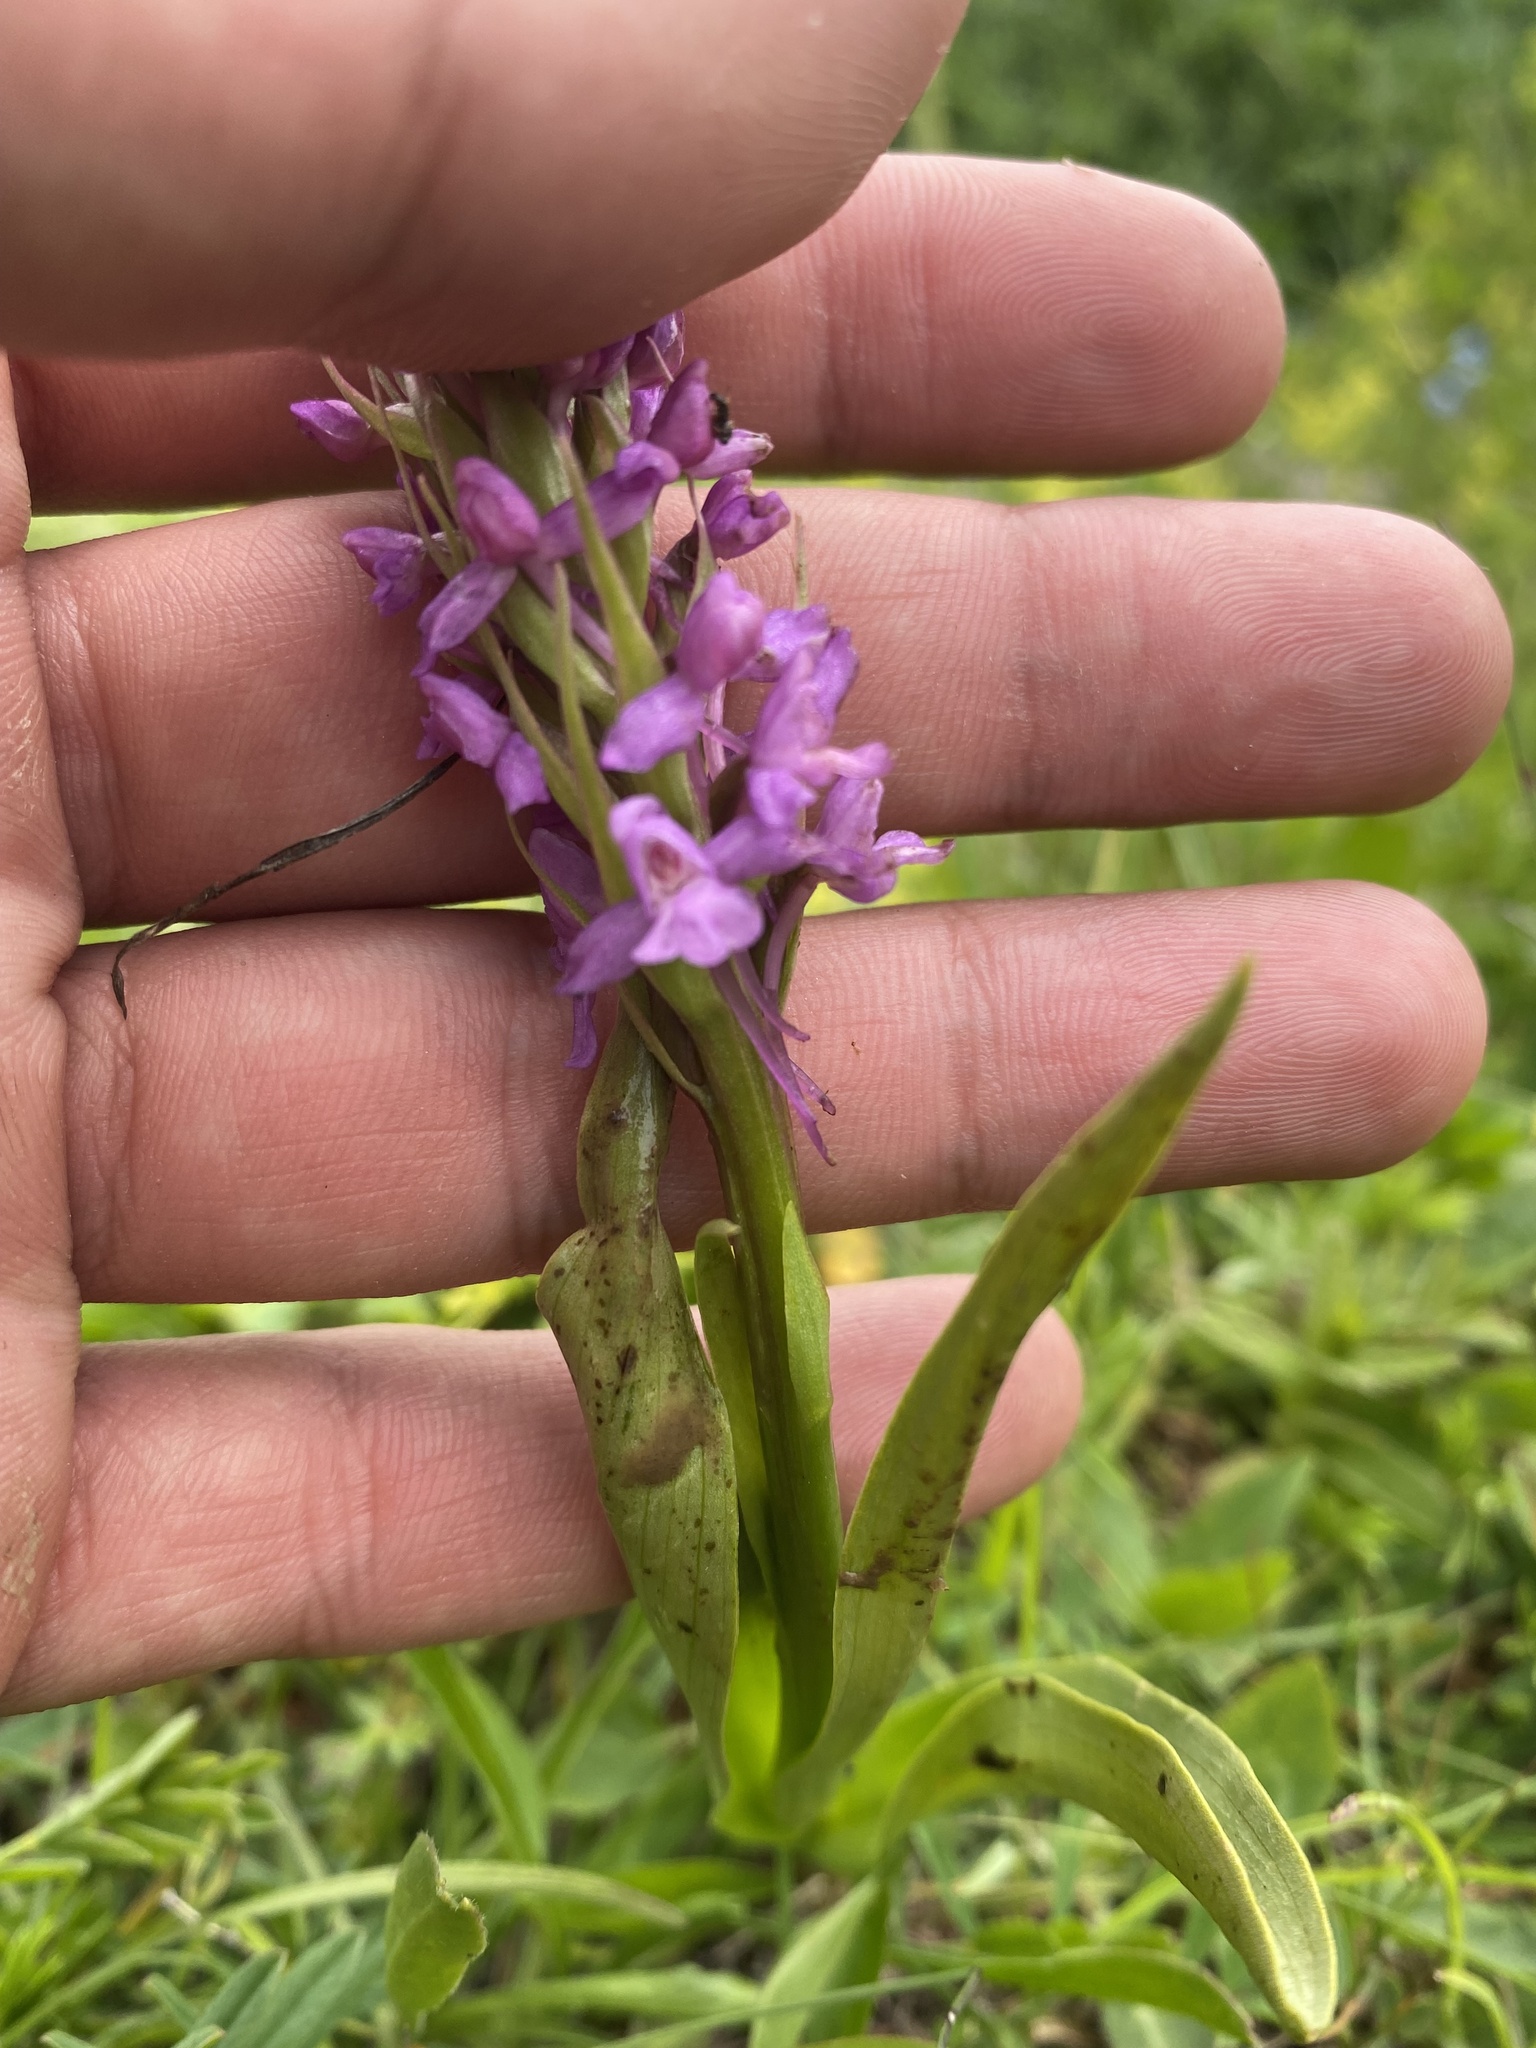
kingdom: Plantae
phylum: Tracheophyta
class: Liliopsida
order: Asparagales
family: Orchidaceae
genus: Gymnadenia
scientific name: Gymnadenia conopsea
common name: Fragrant orchid
